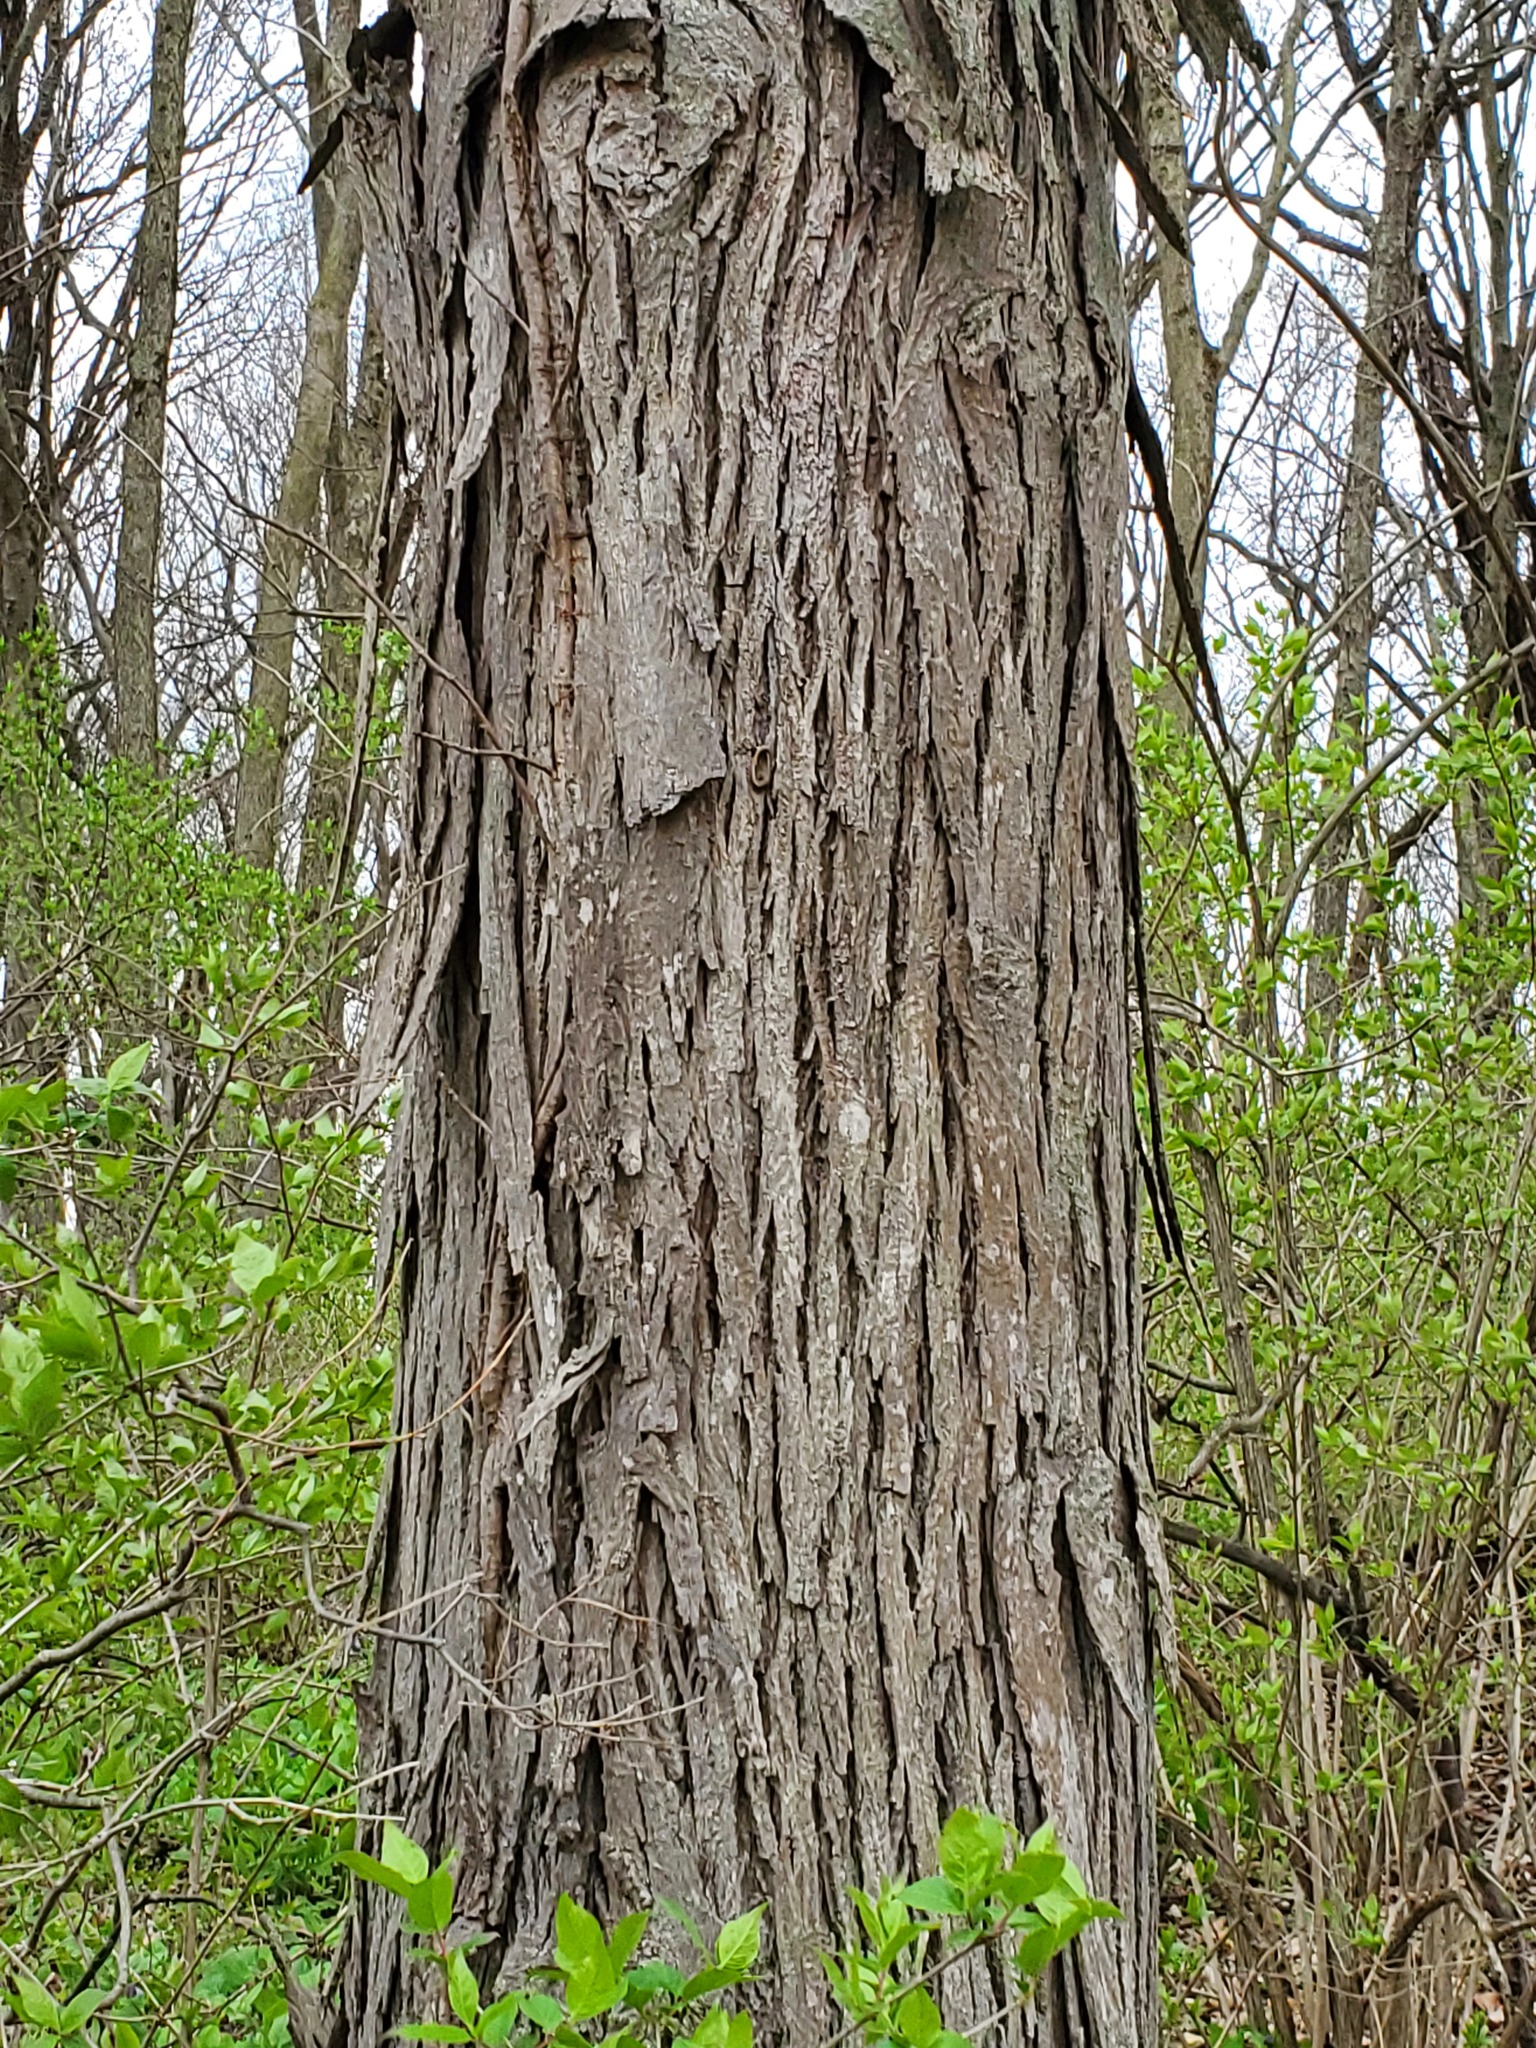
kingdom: Plantae
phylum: Tracheophyta
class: Magnoliopsida
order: Fagales
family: Juglandaceae
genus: Carya
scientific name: Carya ovata
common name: Shagbark hickory
